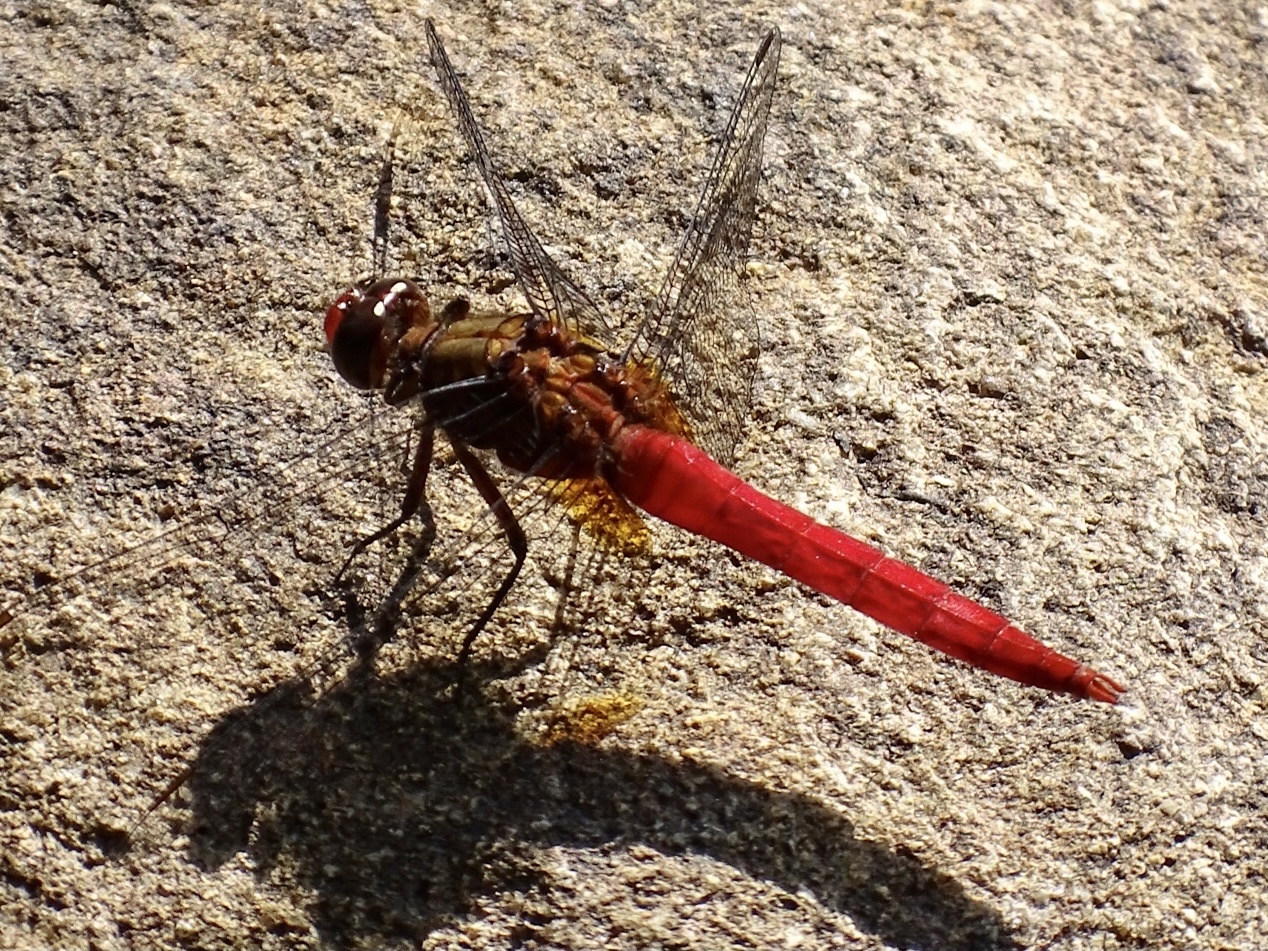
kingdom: Animalia
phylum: Arthropoda
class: Insecta
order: Odonata
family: Libellulidae
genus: Orthetrum
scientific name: Orthetrum chrysis
